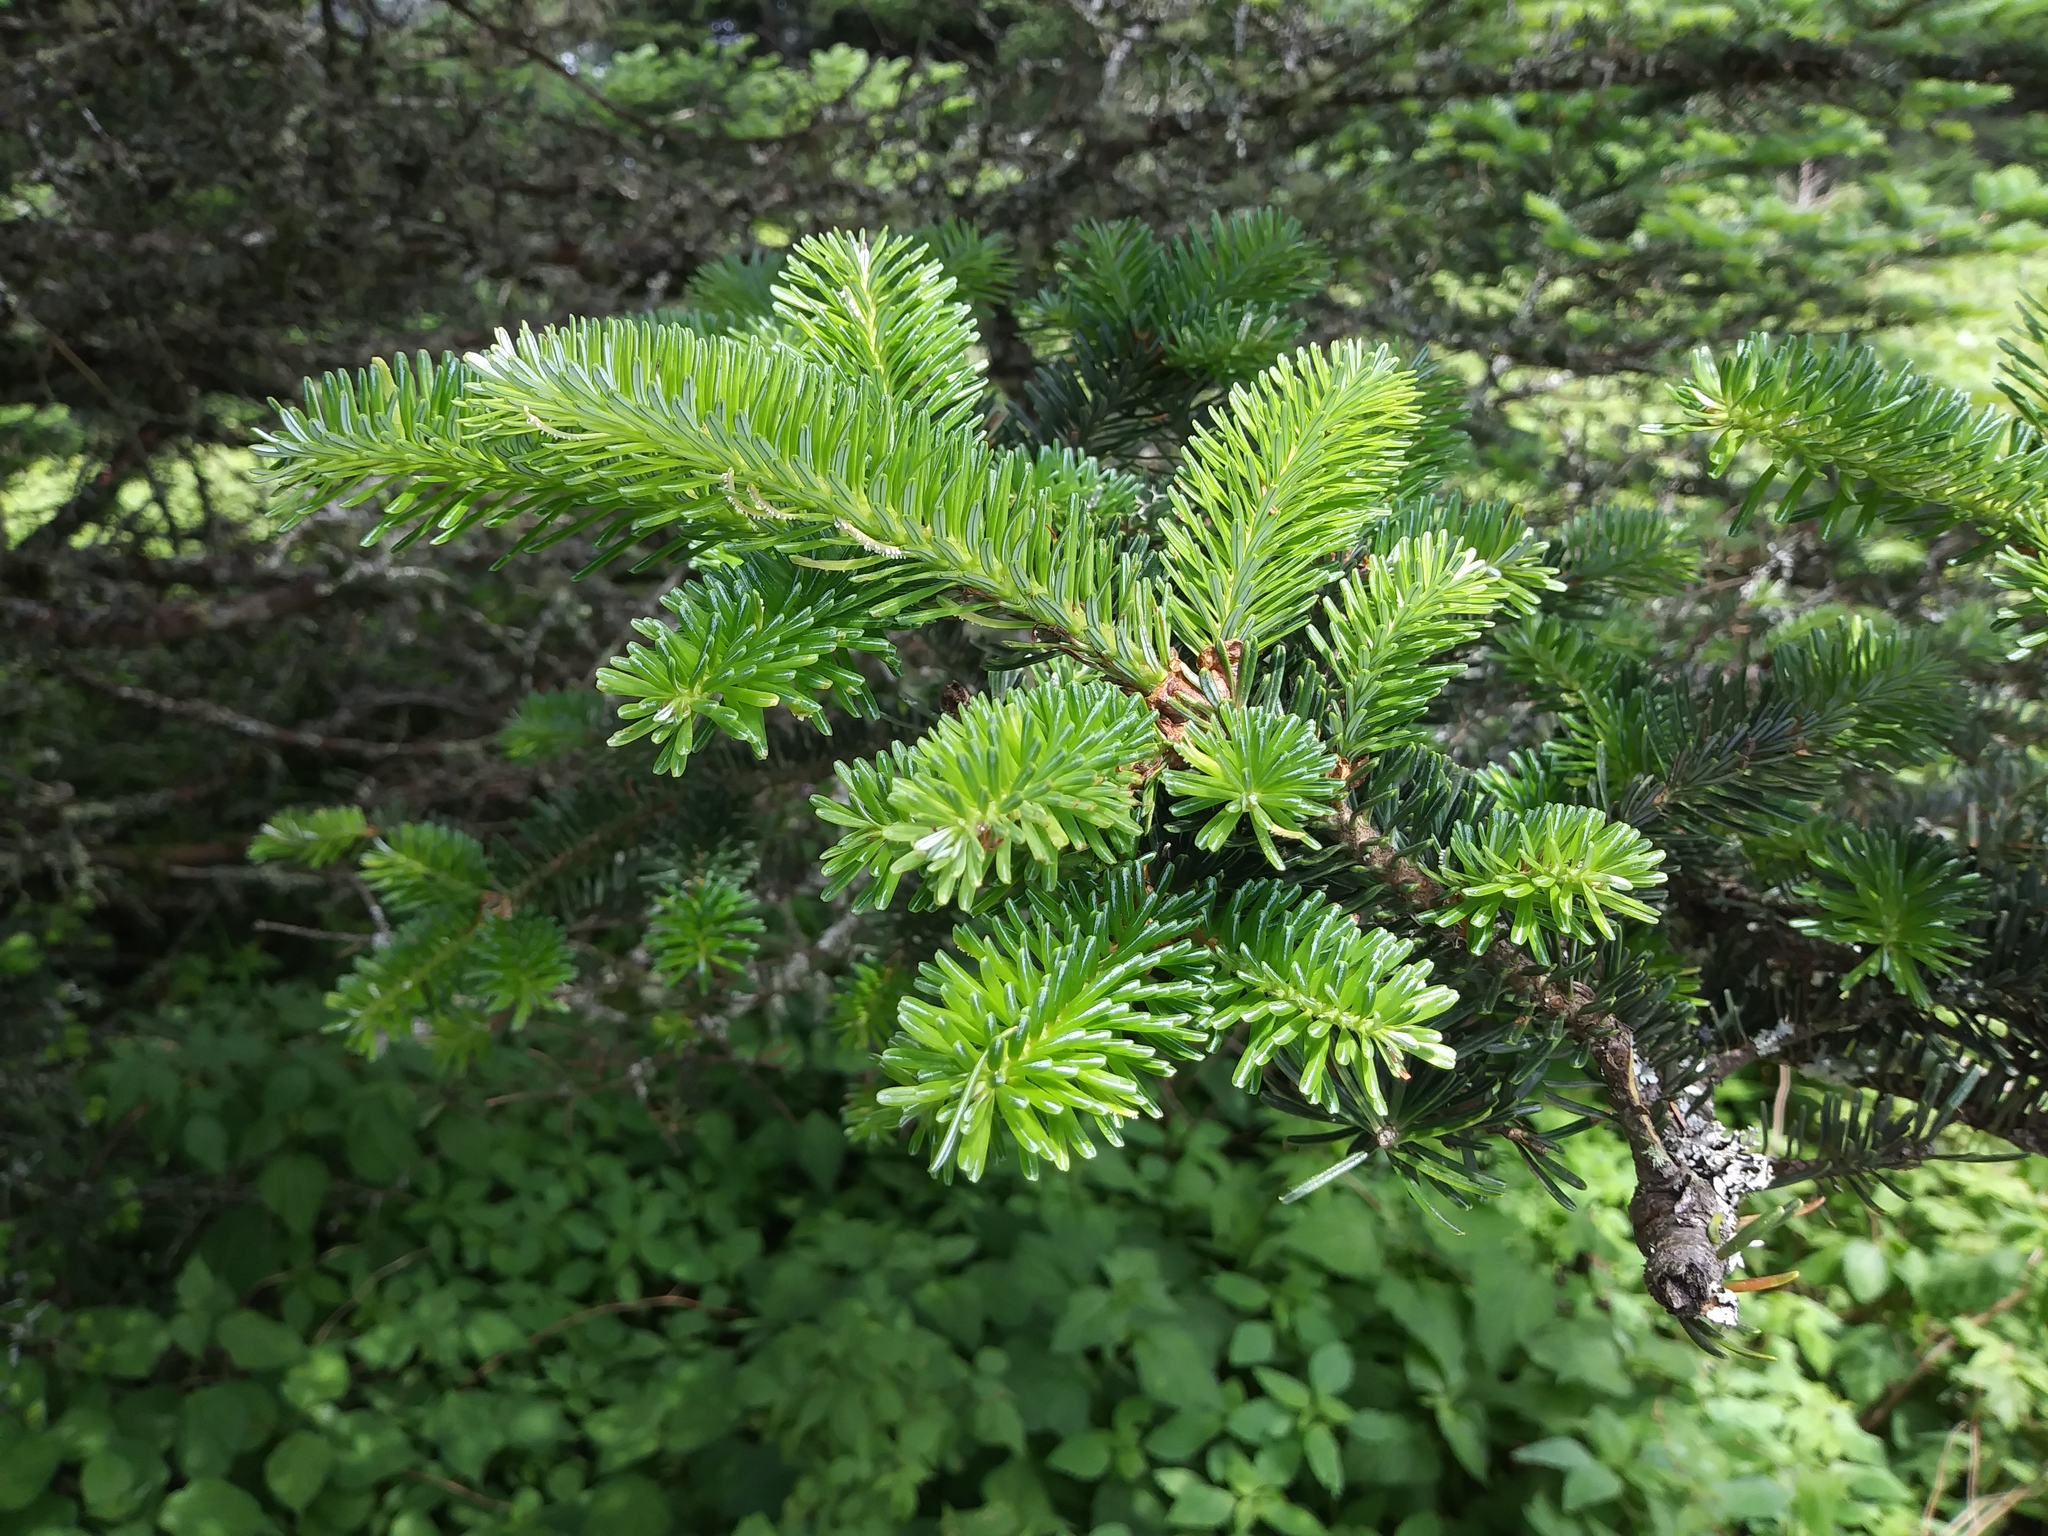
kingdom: Plantae
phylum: Tracheophyta
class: Pinopsida
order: Pinales
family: Pinaceae
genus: Abies
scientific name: Abies fraseri
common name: Fraser fir
